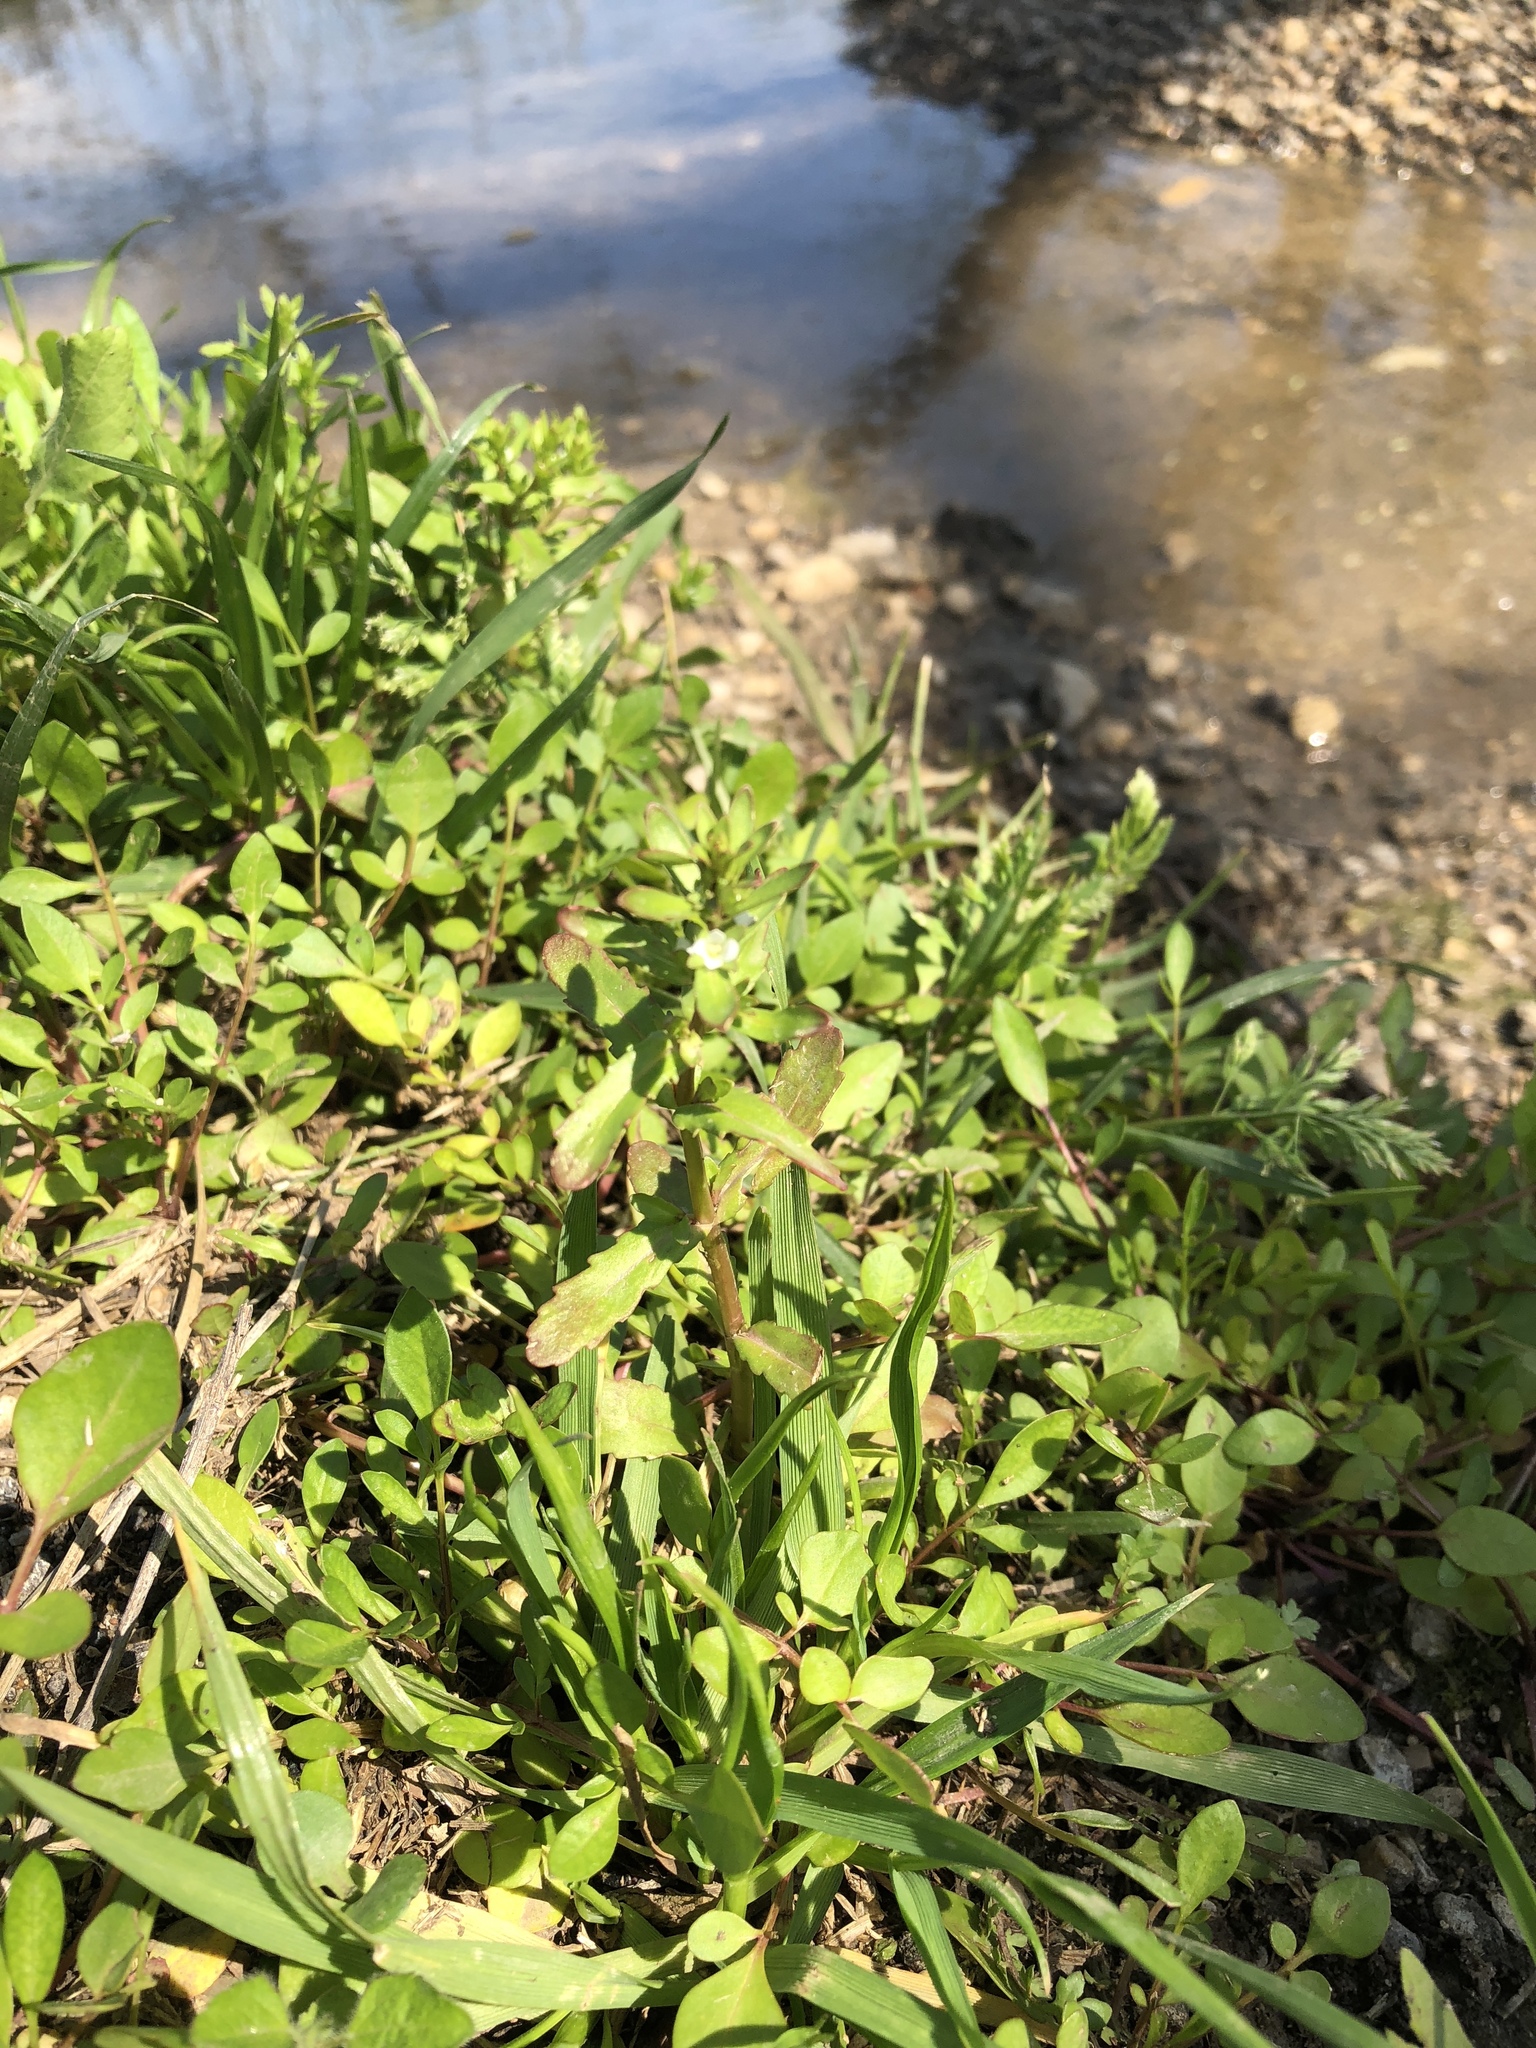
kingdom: Plantae
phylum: Tracheophyta
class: Magnoliopsida
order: Lamiales
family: Plantaginaceae
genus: Veronica
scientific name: Veronica peregrina
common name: Neckweed
